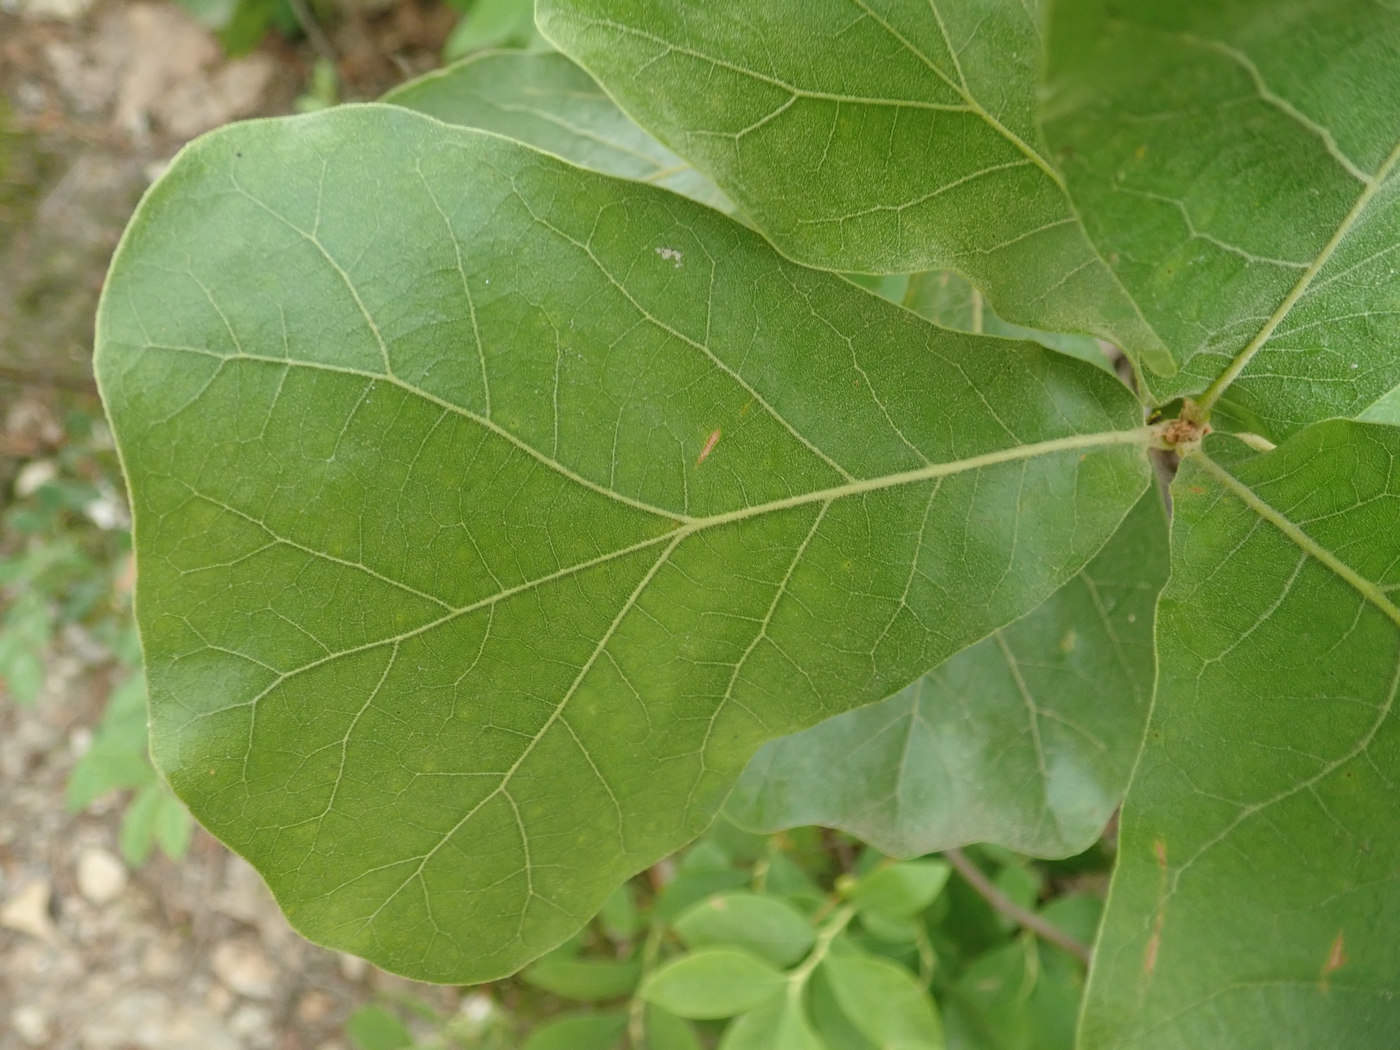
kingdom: Plantae
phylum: Tracheophyta
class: Magnoliopsida
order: Fagales
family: Fagaceae
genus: Quercus
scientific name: Quercus marilandica
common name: Blackjack oak
